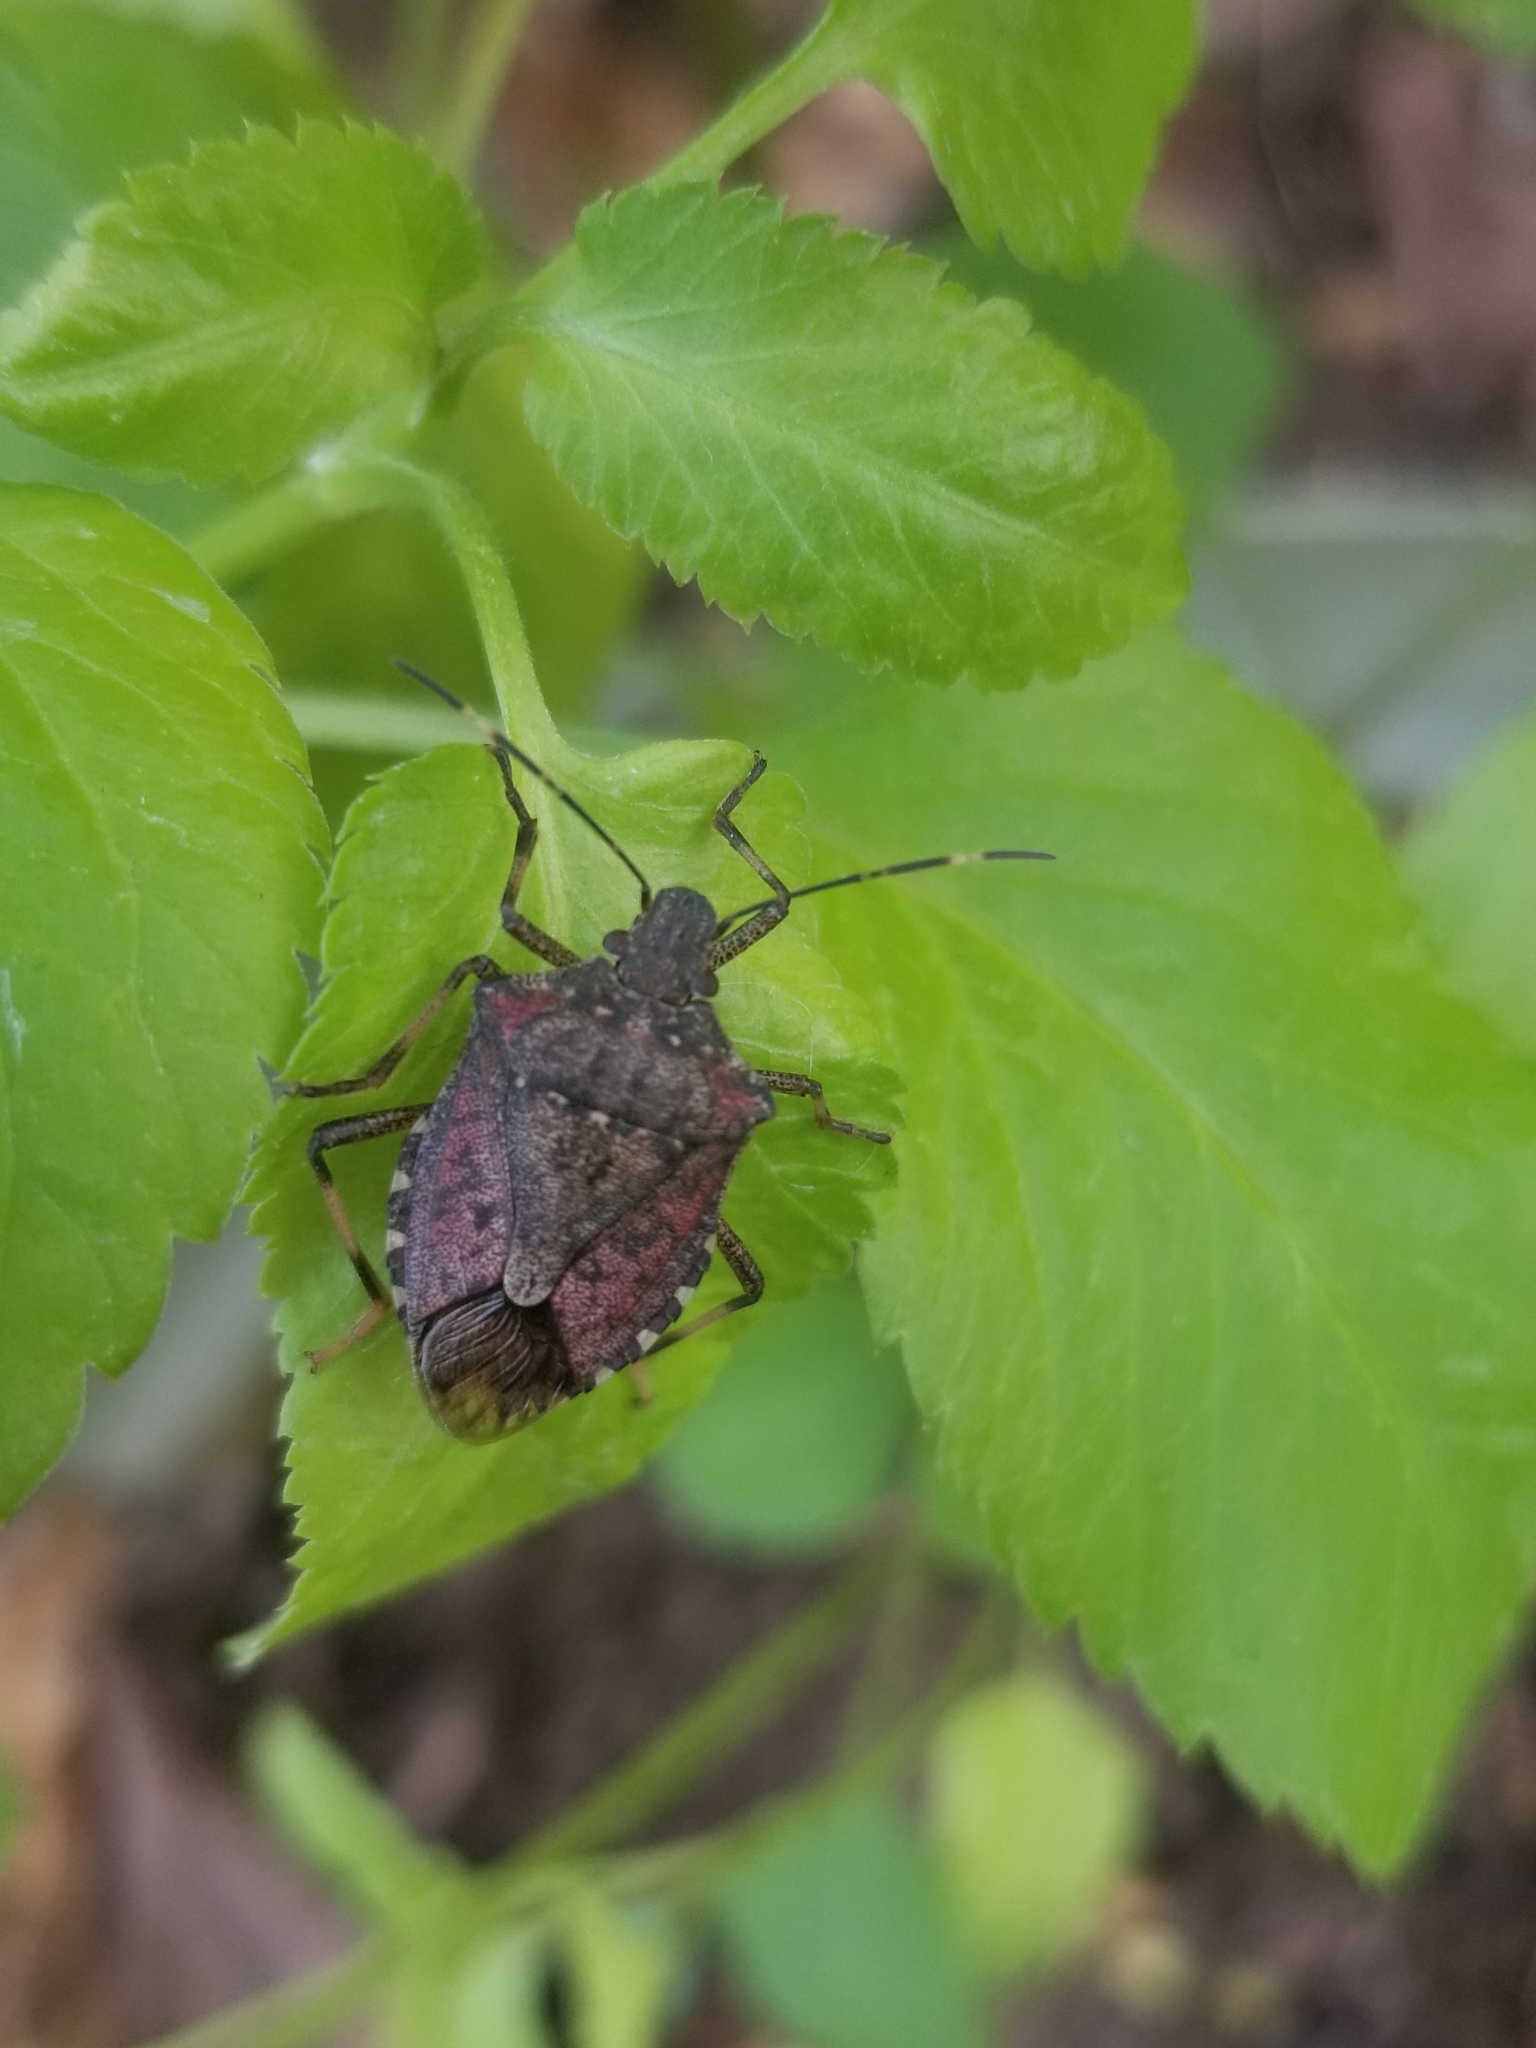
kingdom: Animalia
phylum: Arthropoda
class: Insecta
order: Hemiptera
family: Pentatomidae
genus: Halyomorpha
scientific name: Halyomorpha halys
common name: Brown marmorated stink bug
